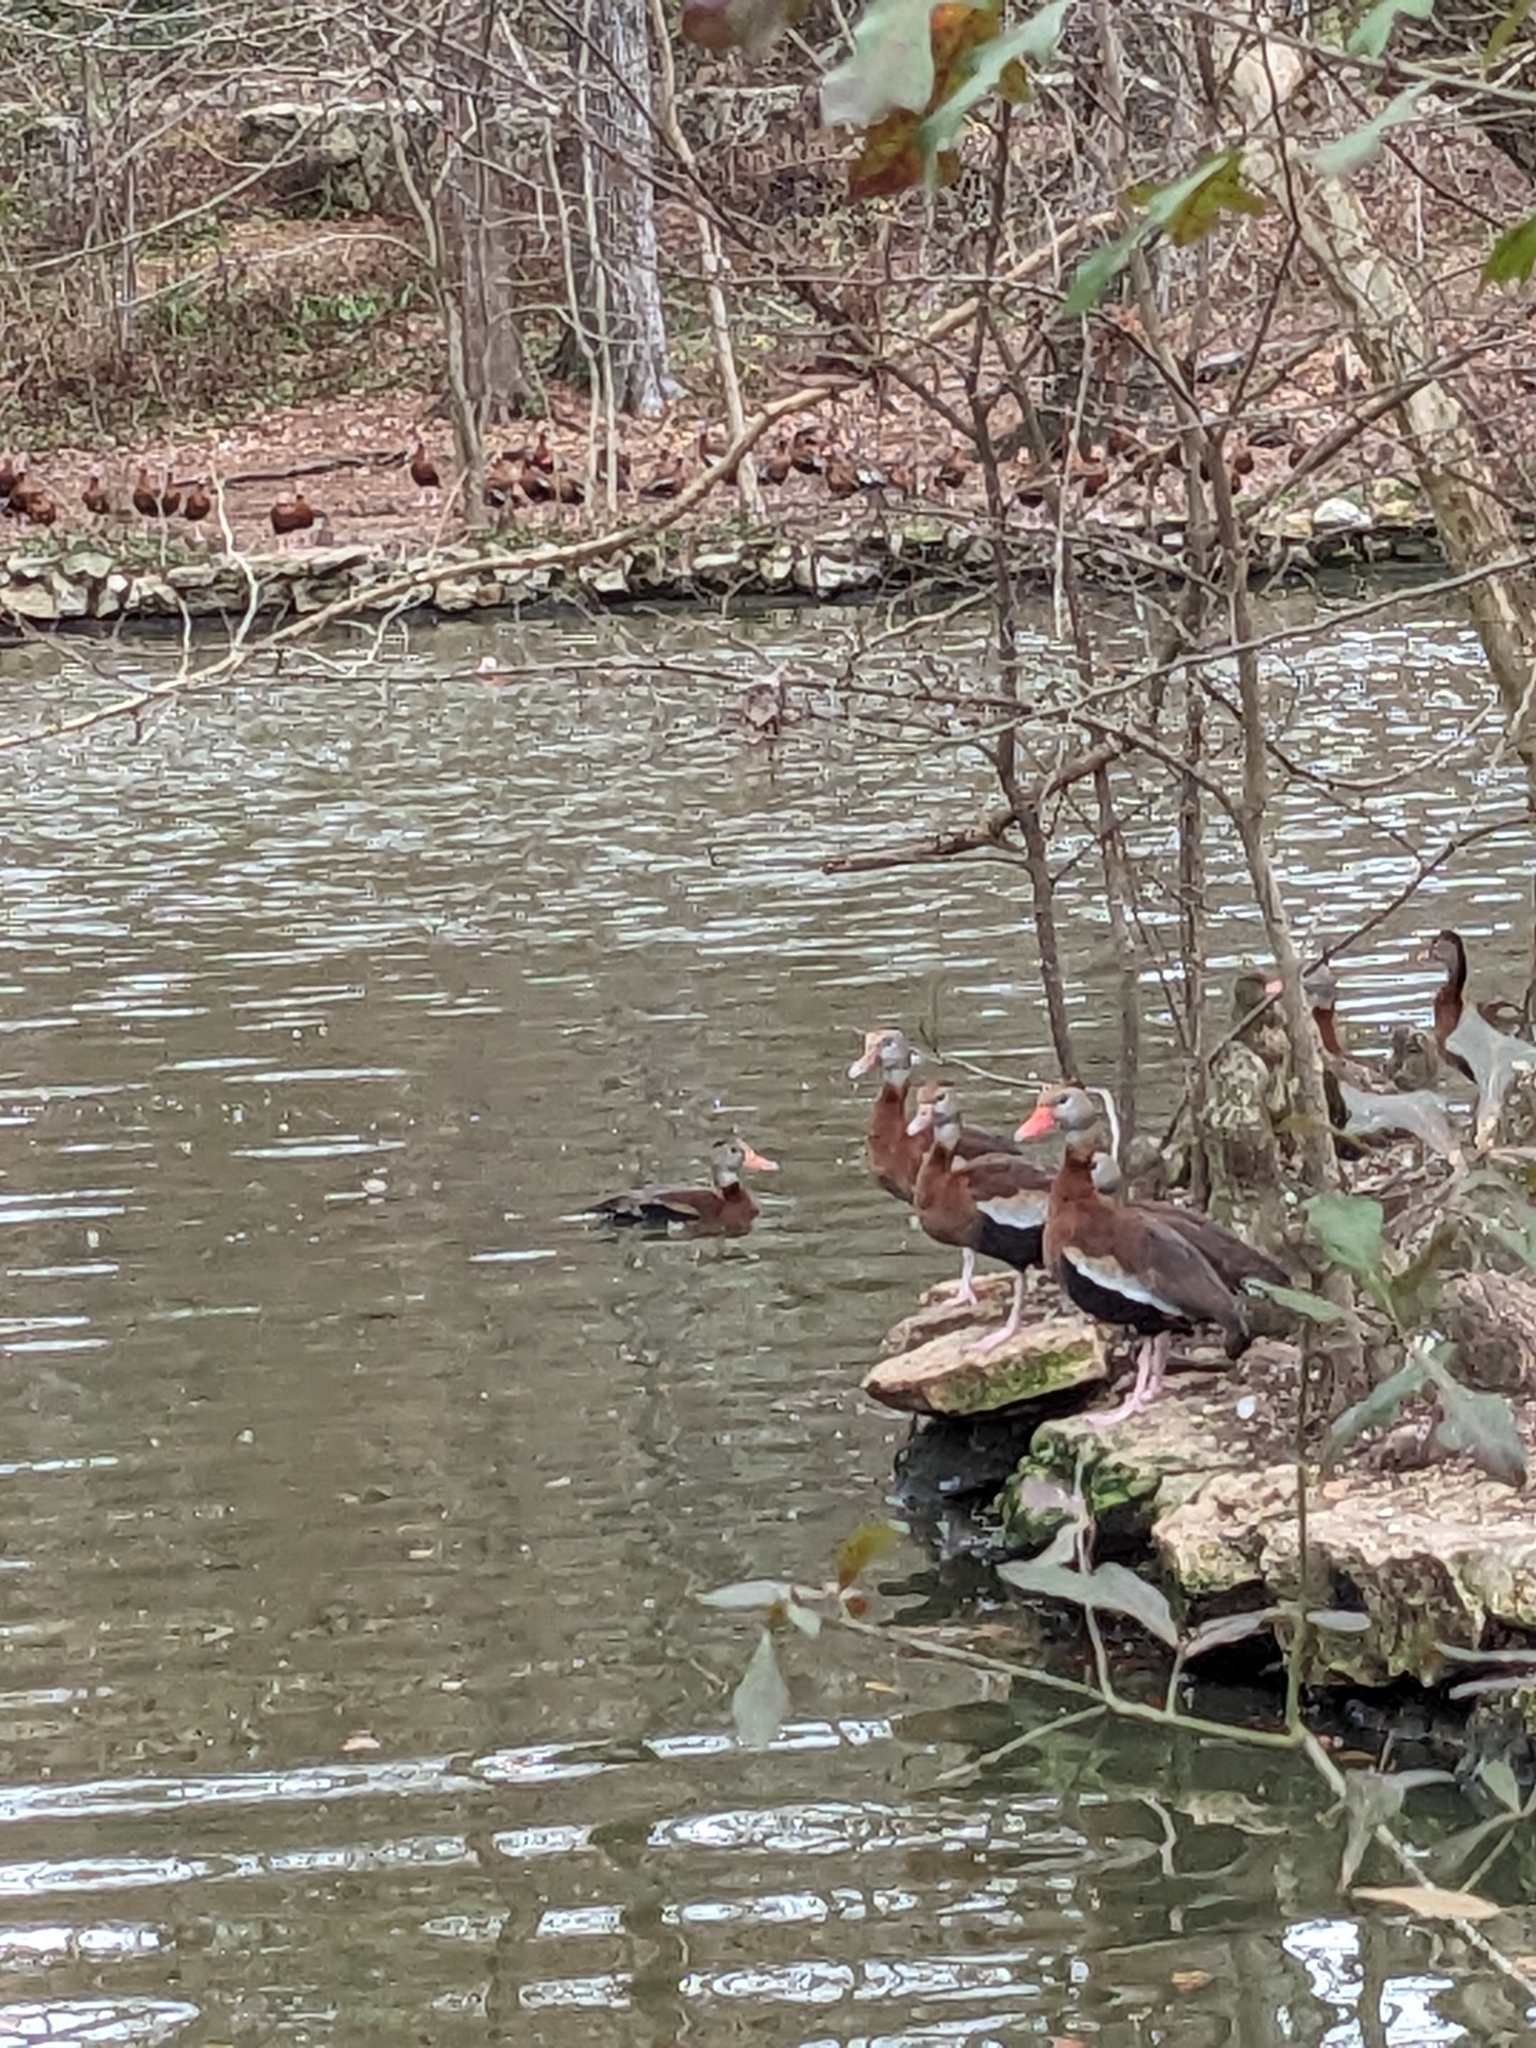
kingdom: Animalia
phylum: Chordata
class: Aves
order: Anseriformes
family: Anatidae
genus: Dendrocygna
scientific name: Dendrocygna autumnalis
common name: Black-bellied whistling duck
